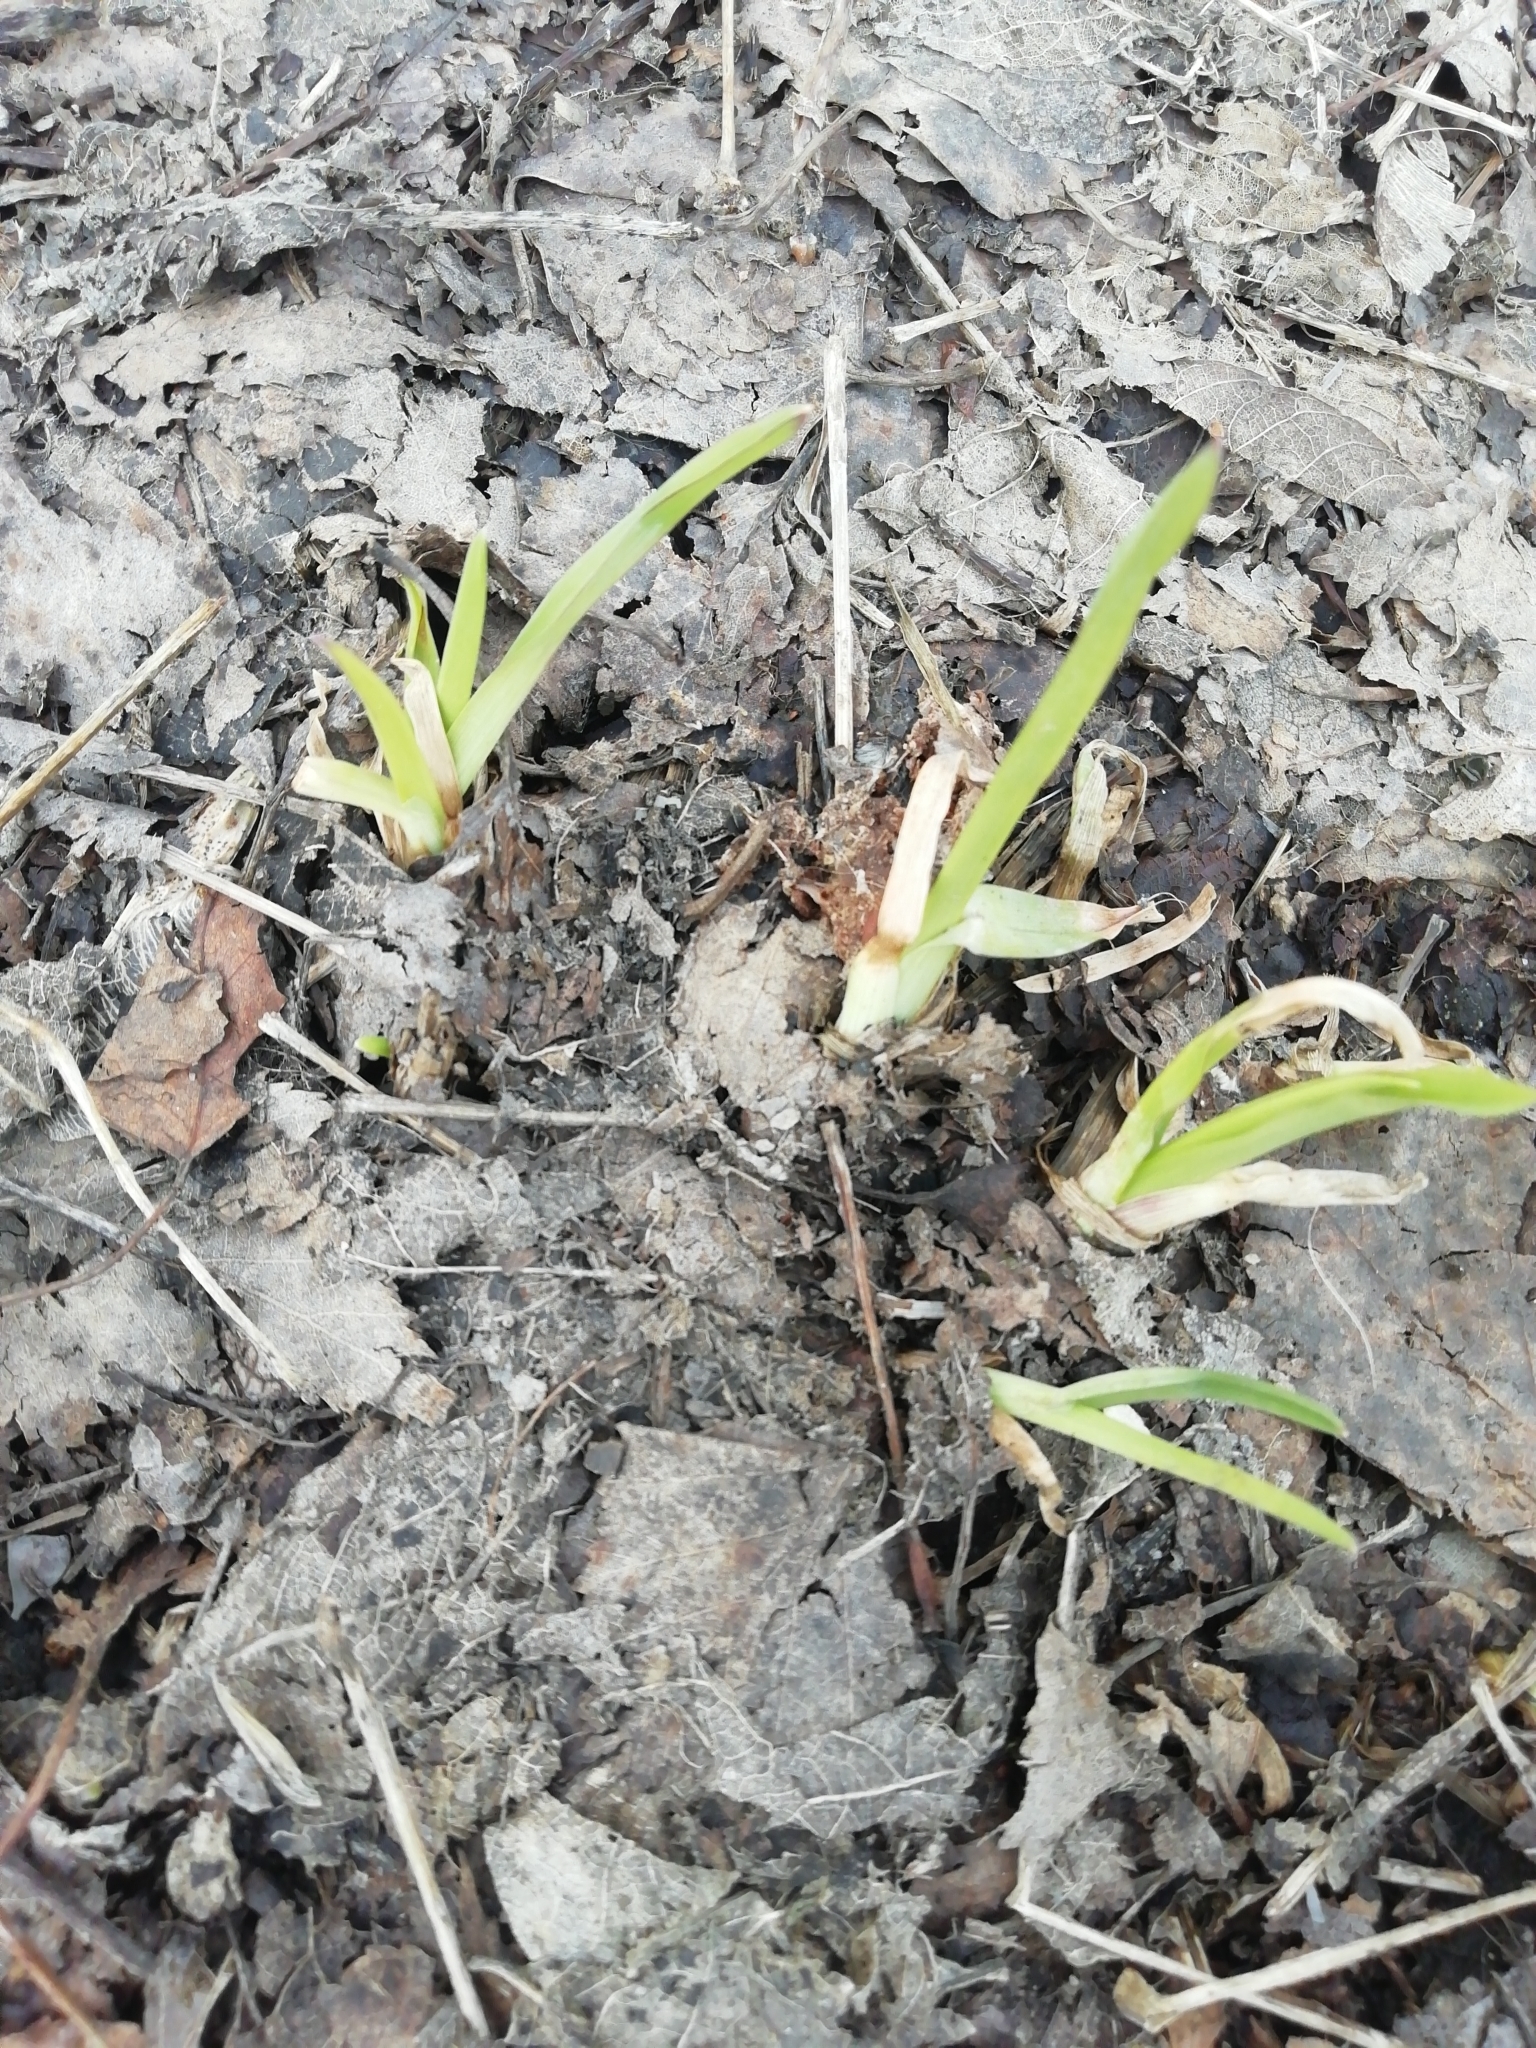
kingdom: Plantae
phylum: Tracheophyta
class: Liliopsida
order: Poales
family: Cyperaceae
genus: Scirpus
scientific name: Scirpus sylvaticus
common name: Wood club-rush
